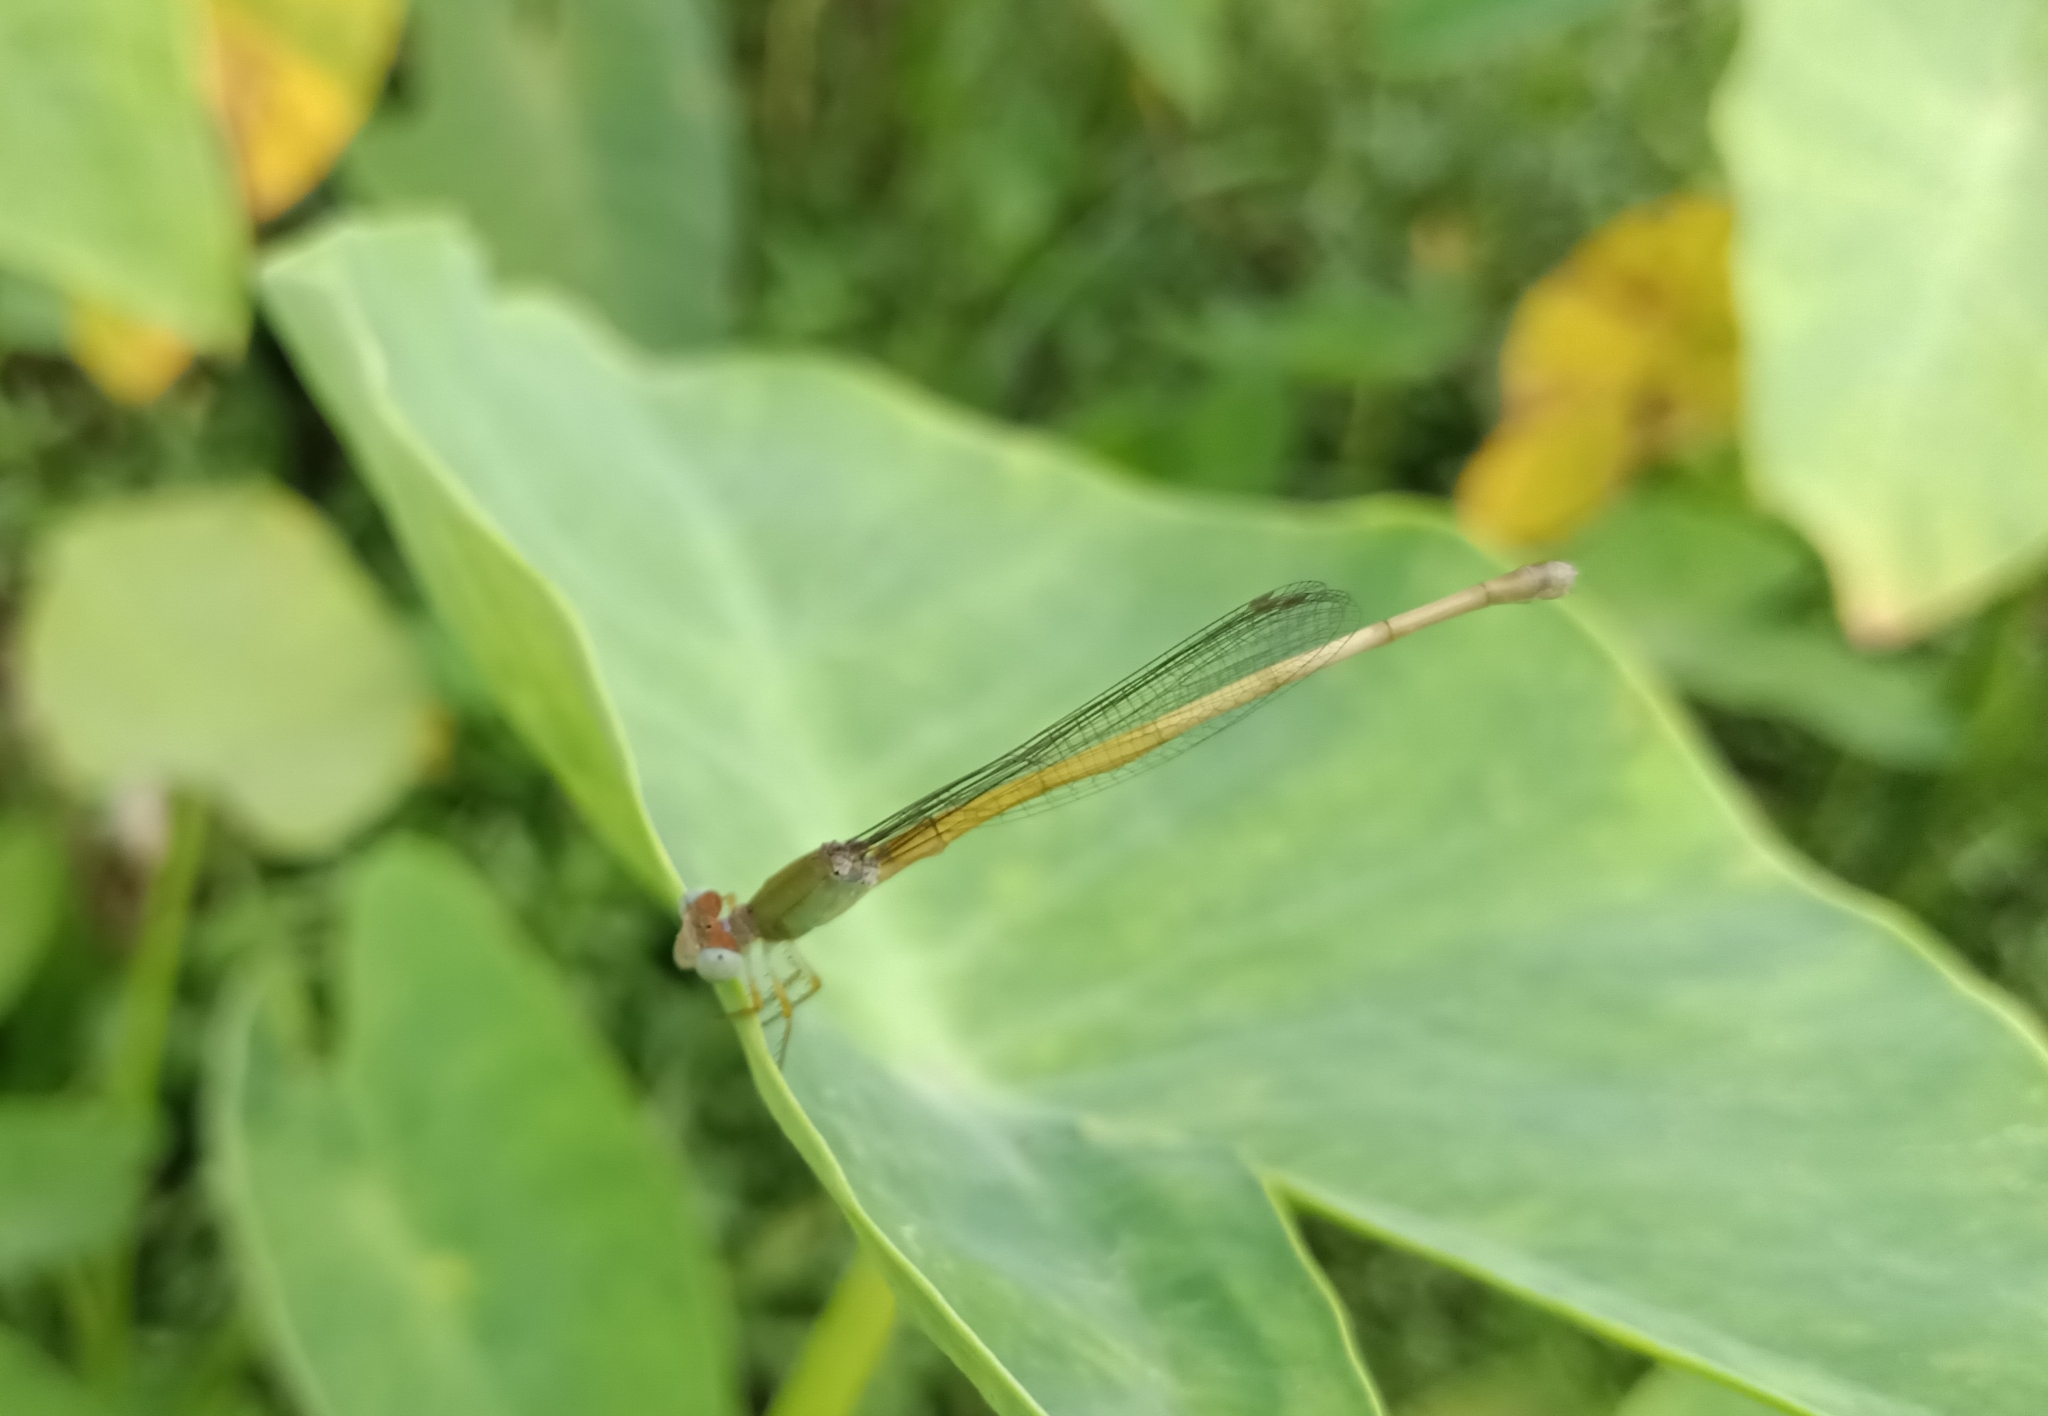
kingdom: Animalia
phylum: Arthropoda
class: Insecta
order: Odonata
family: Coenagrionidae
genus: Ceriagrion
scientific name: Ceriagrion coromandelianum
